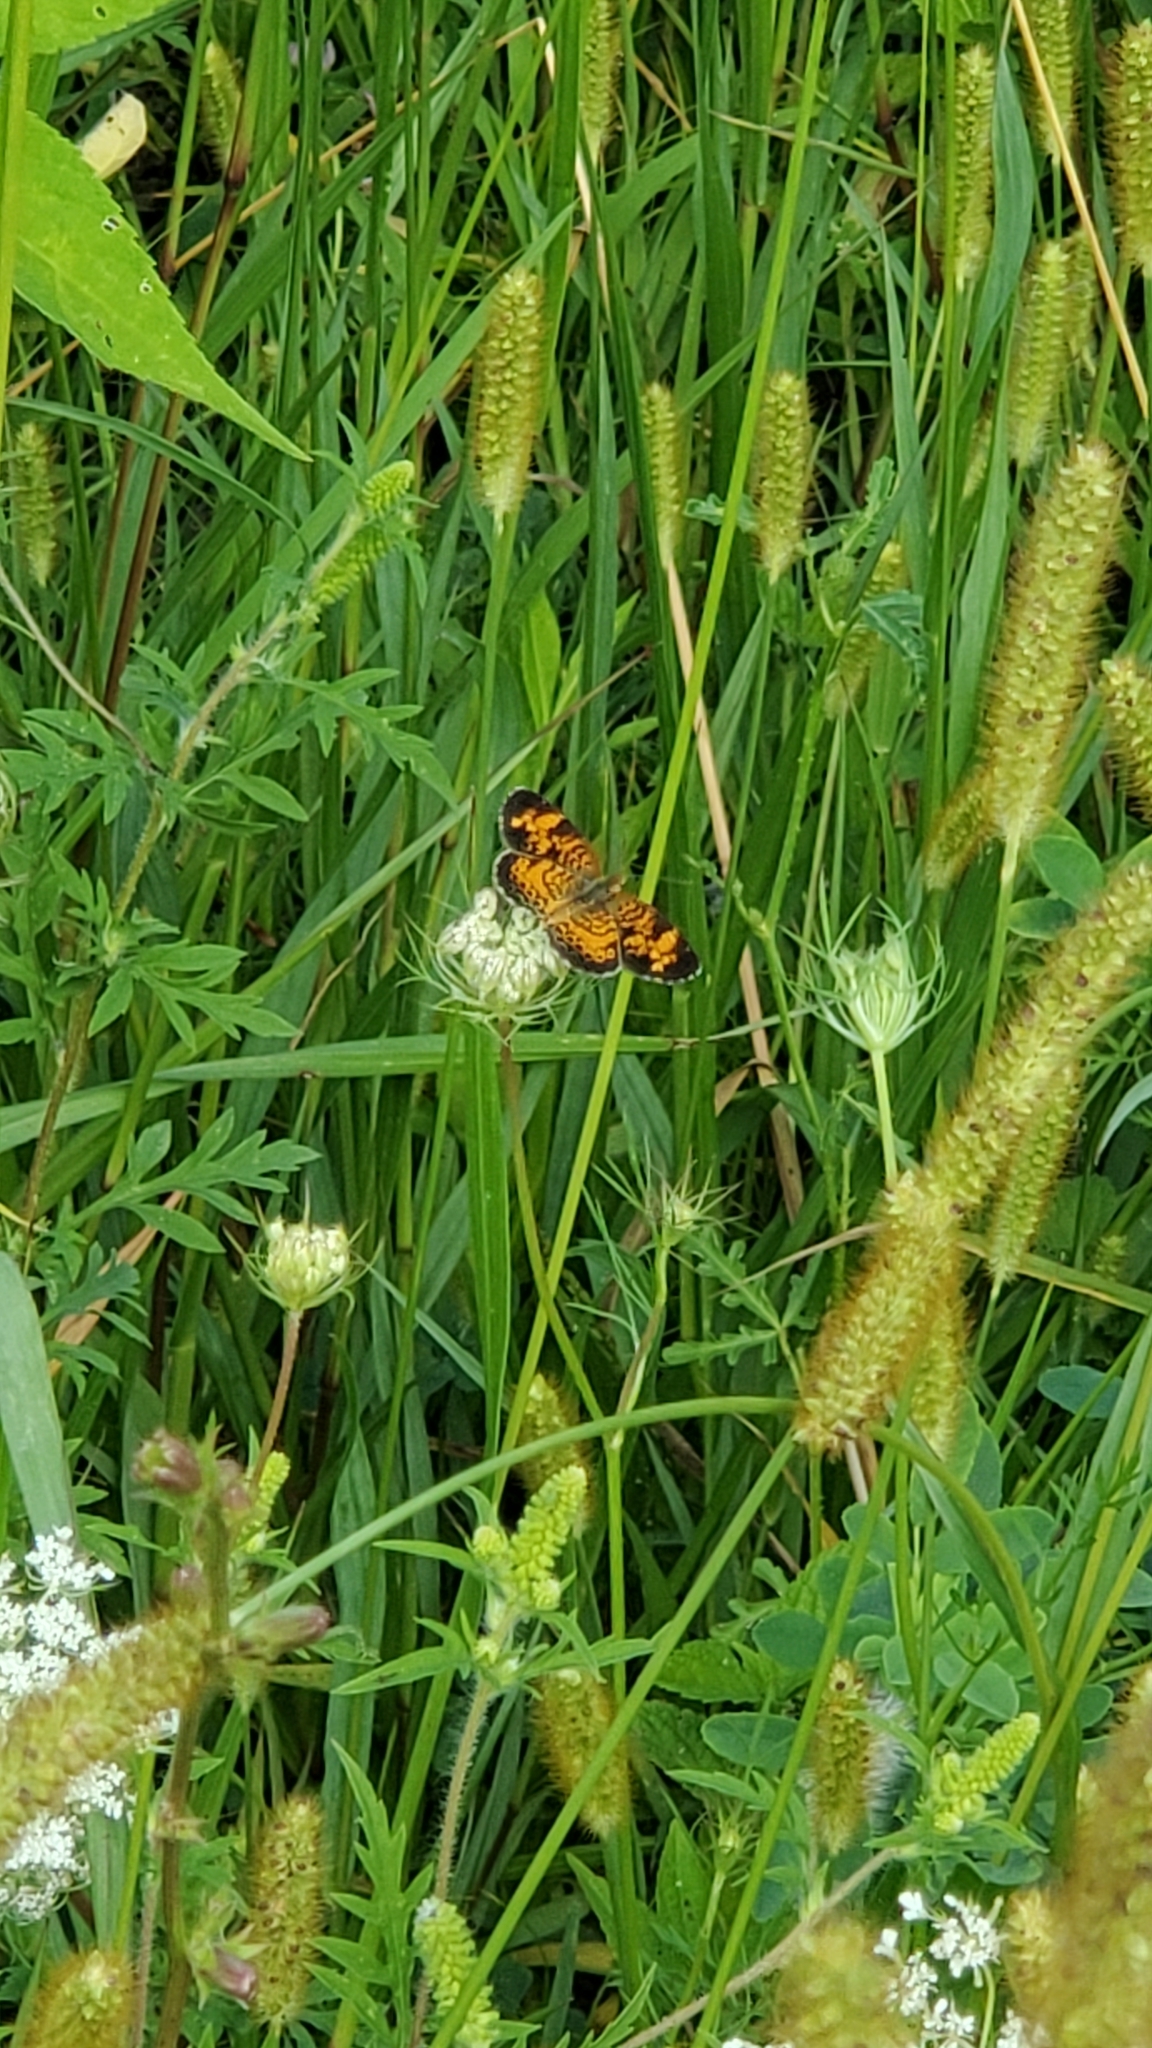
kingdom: Animalia
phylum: Arthropoda
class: Insecta
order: Lepidoptera
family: Nymphalidae
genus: Phyciodes
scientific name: Phyciodes tharos
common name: Pearl crescent
